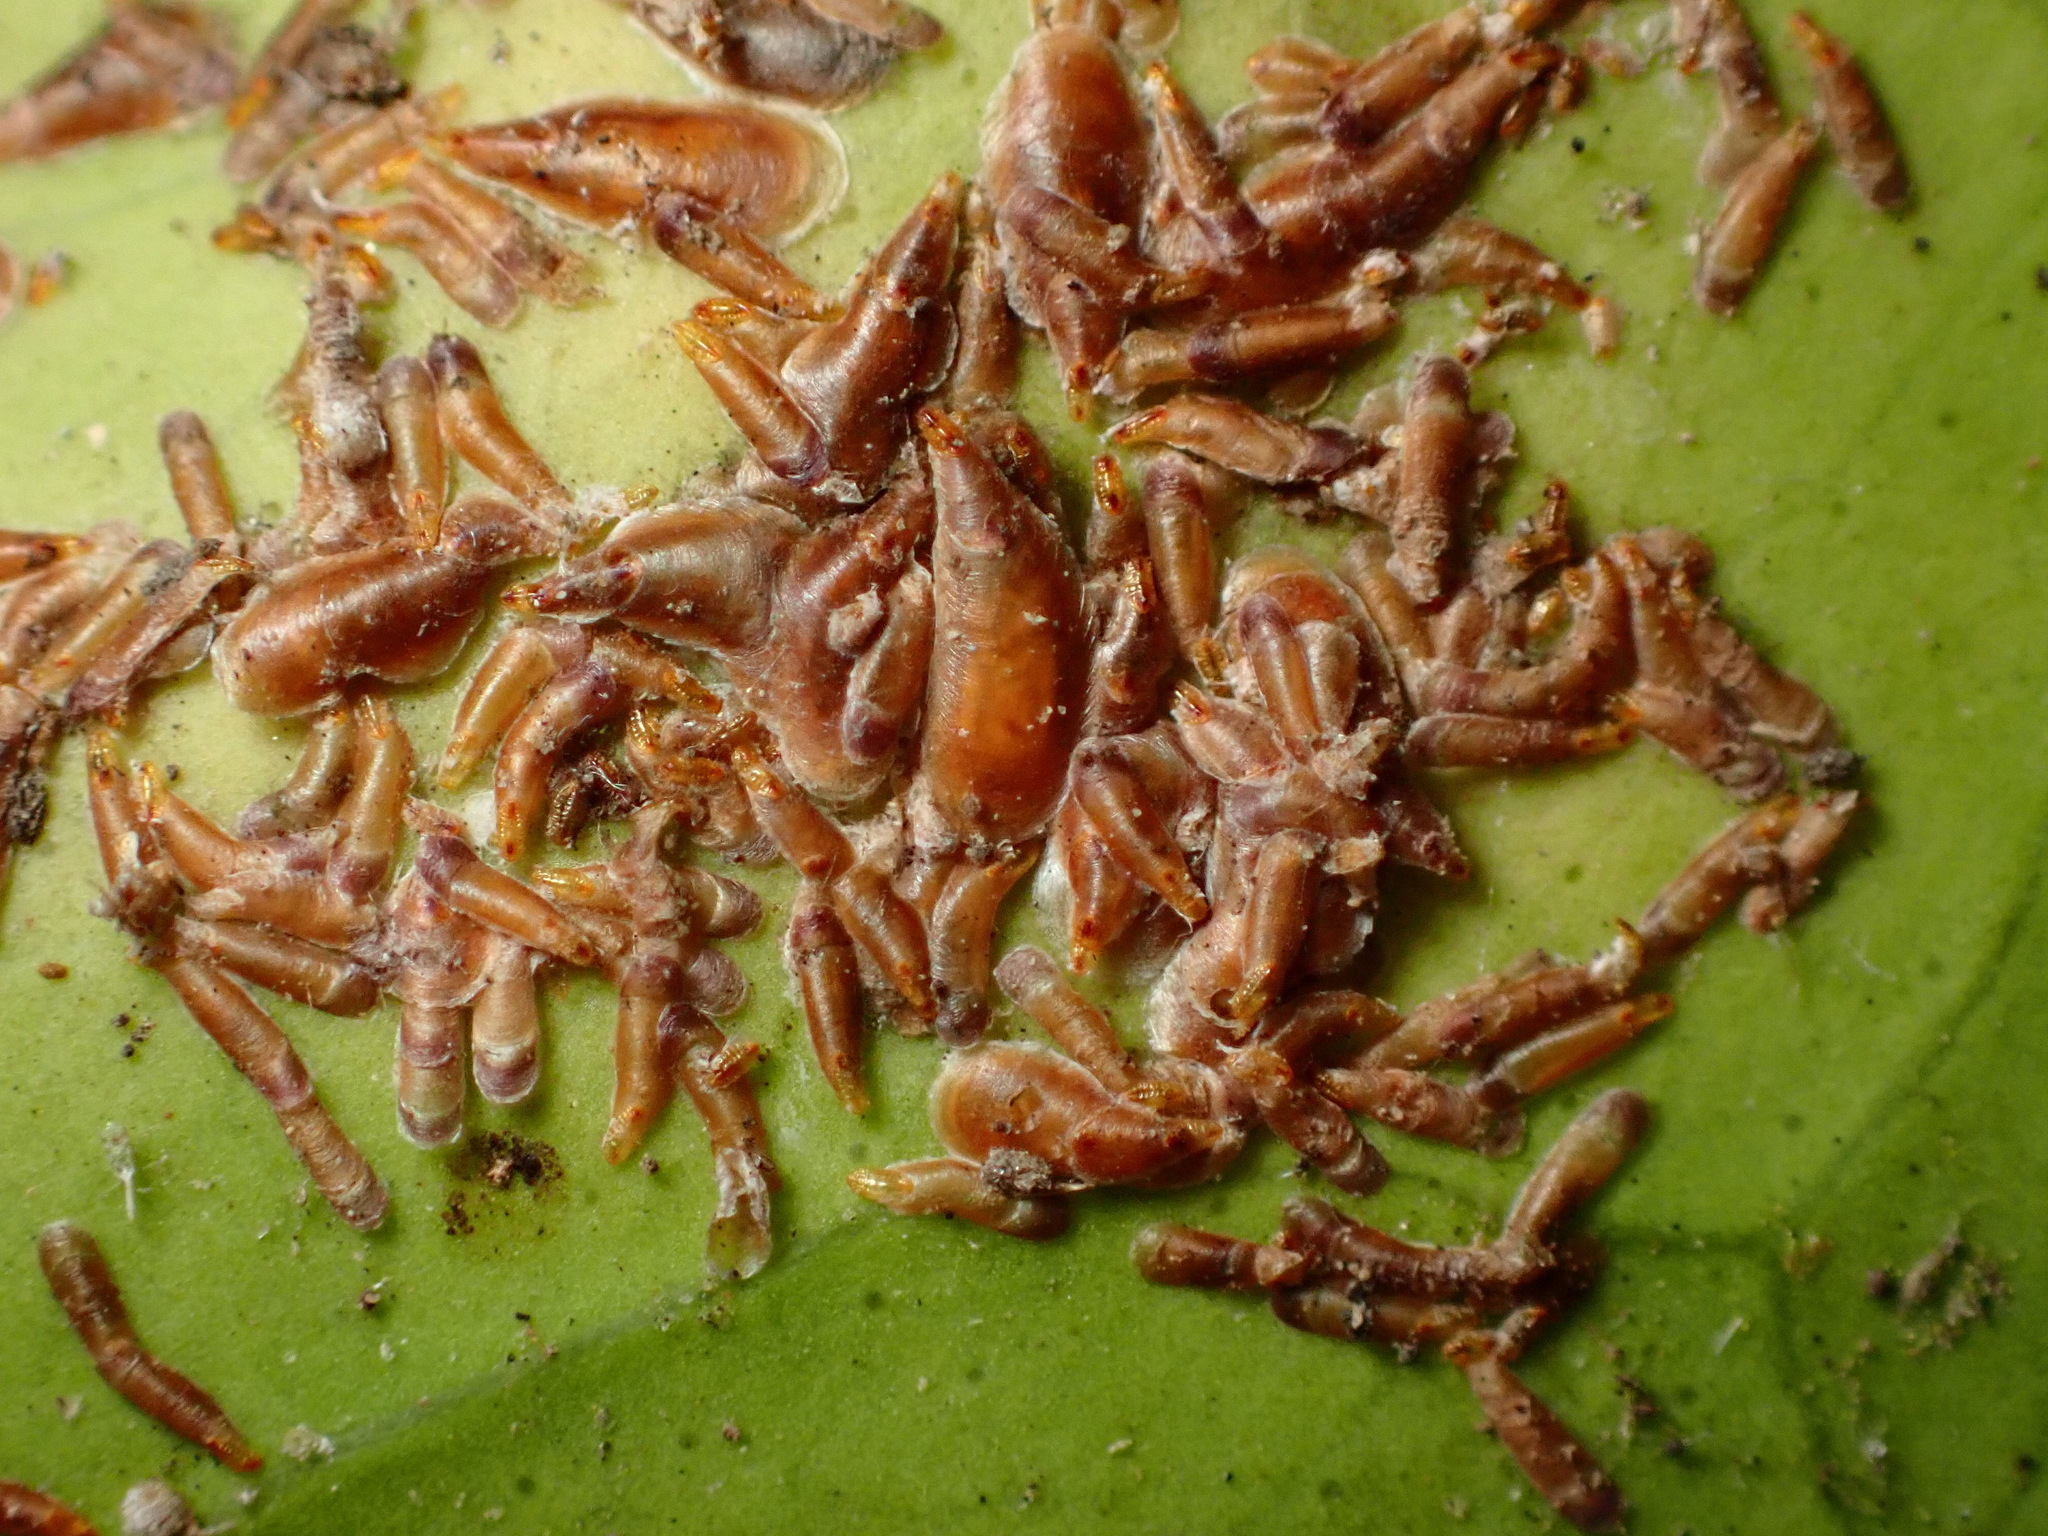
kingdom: Animalia
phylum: Arthropoda
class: Insecta
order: Hemiptera
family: Diaspididae
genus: Lepidosaphes
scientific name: Lepidosaphes beckii
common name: Purple scale
